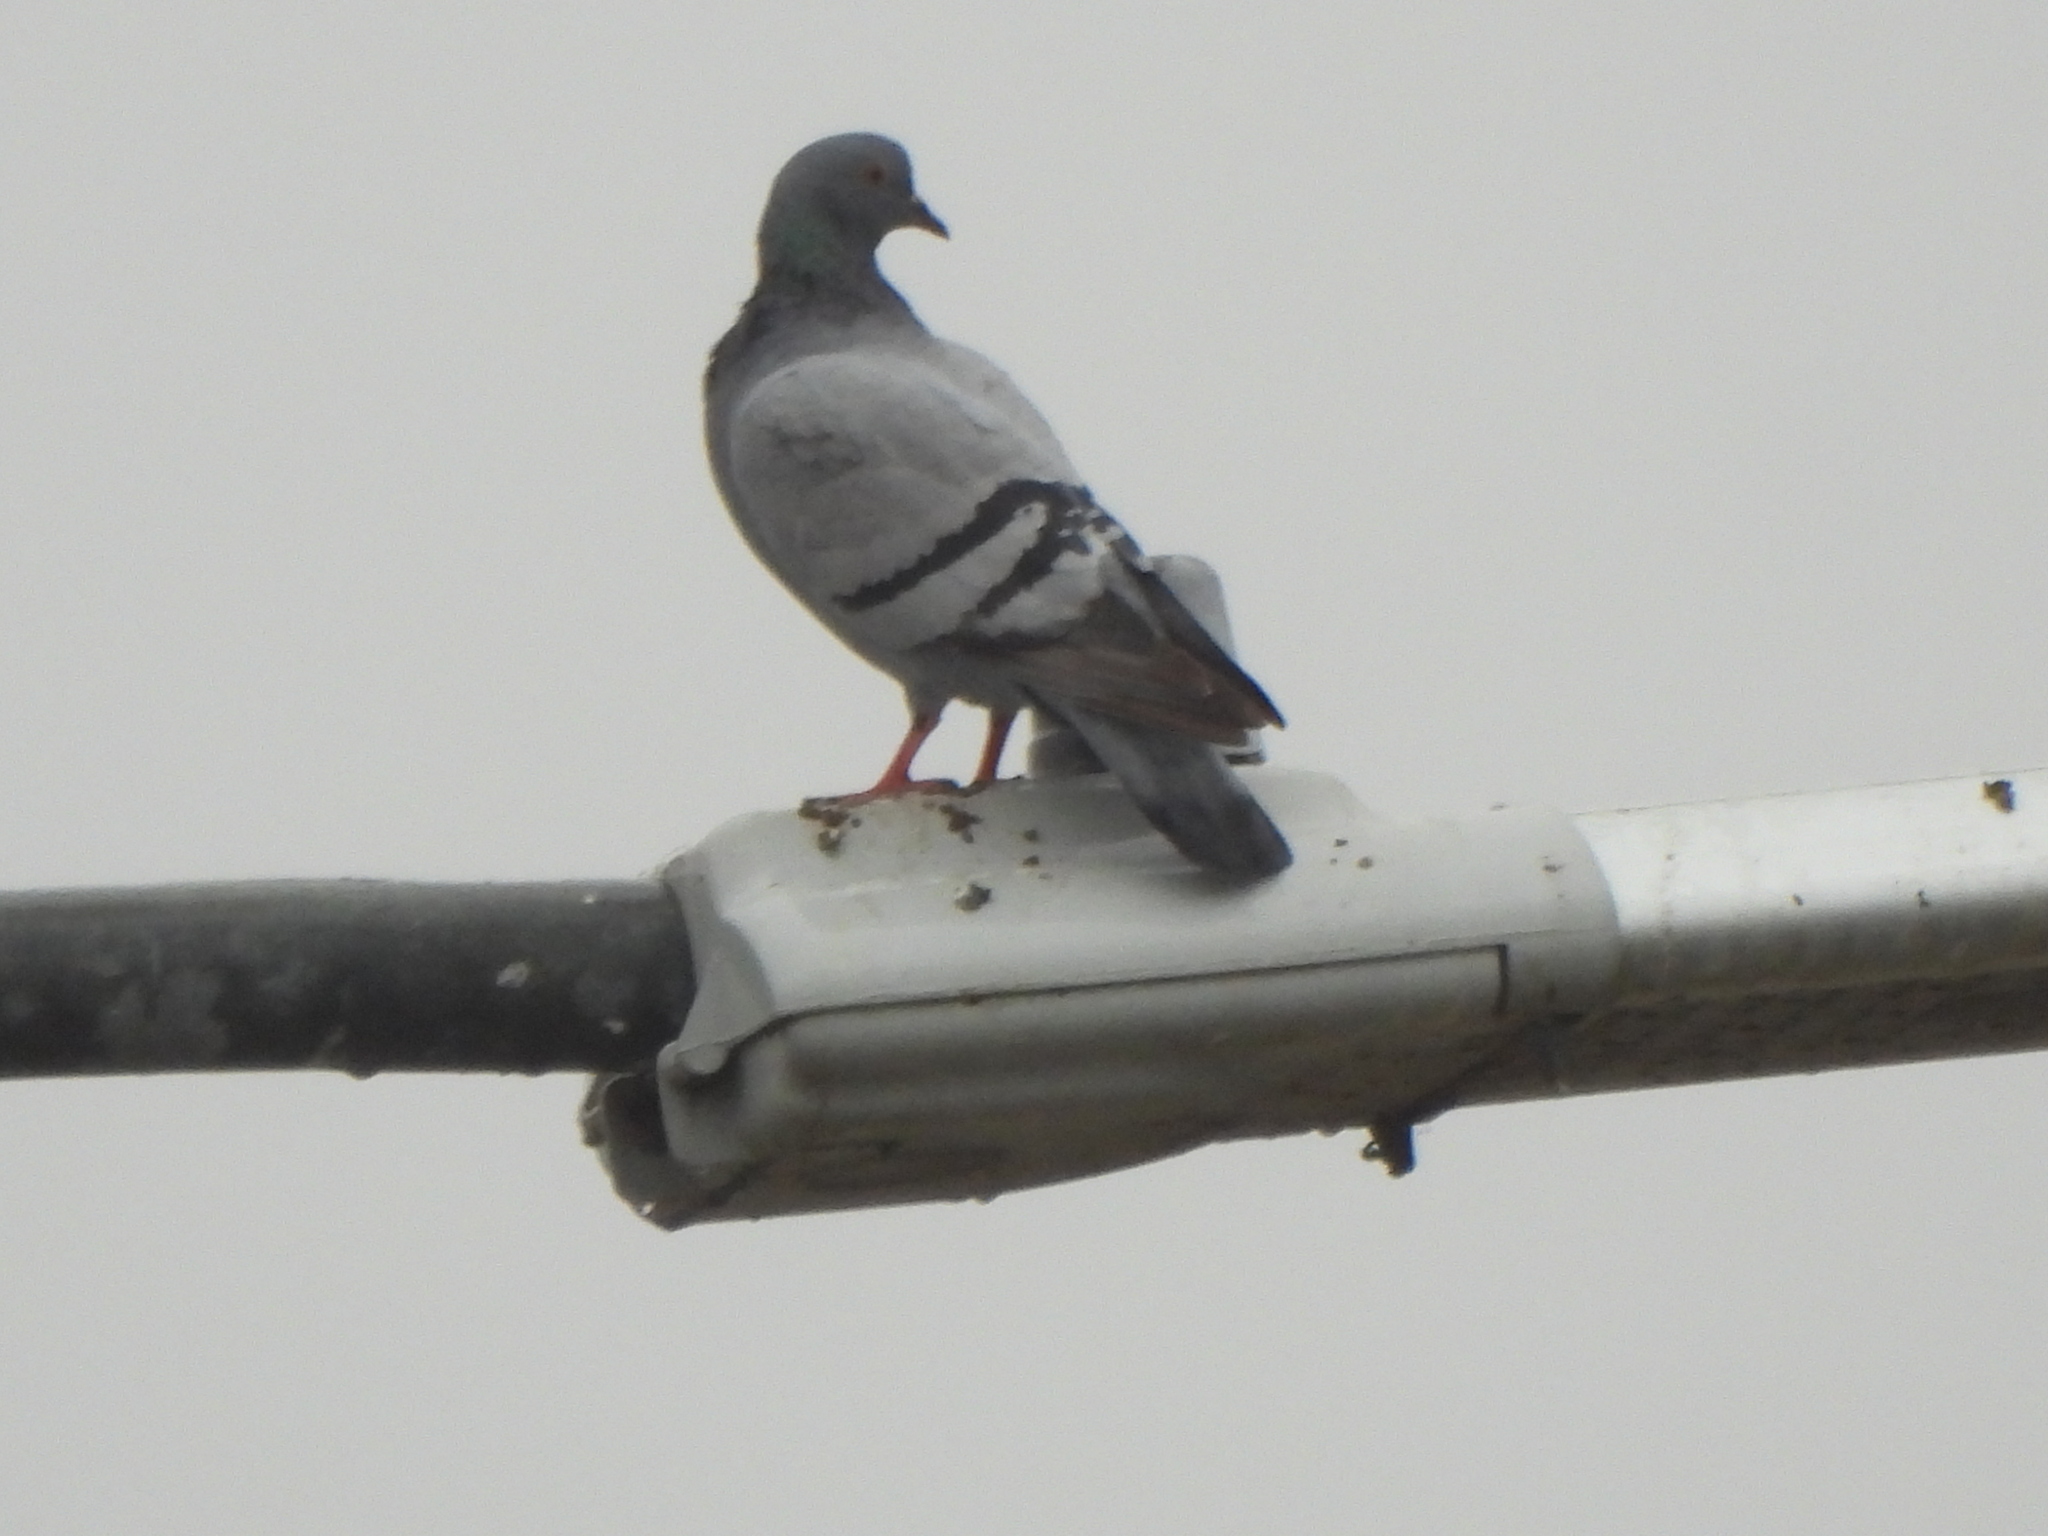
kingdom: Animalia
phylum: Chordata
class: Aves
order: Columbiformes
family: Columbidae
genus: Columba
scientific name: Columba livia
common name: Rock pigeon
